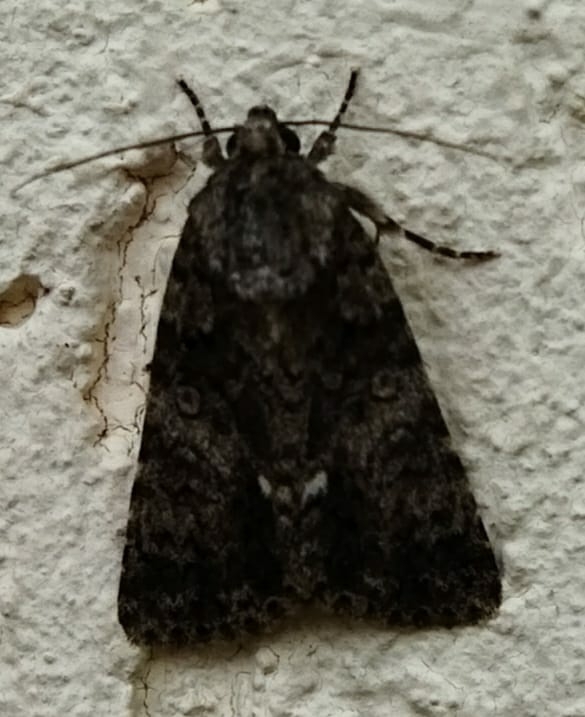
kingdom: Animalia
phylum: Arthropoda
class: Insecta
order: Lepidoptera
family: Noctuidae
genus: Acronicta
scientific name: Acronicta rumicis
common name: Knot grass
